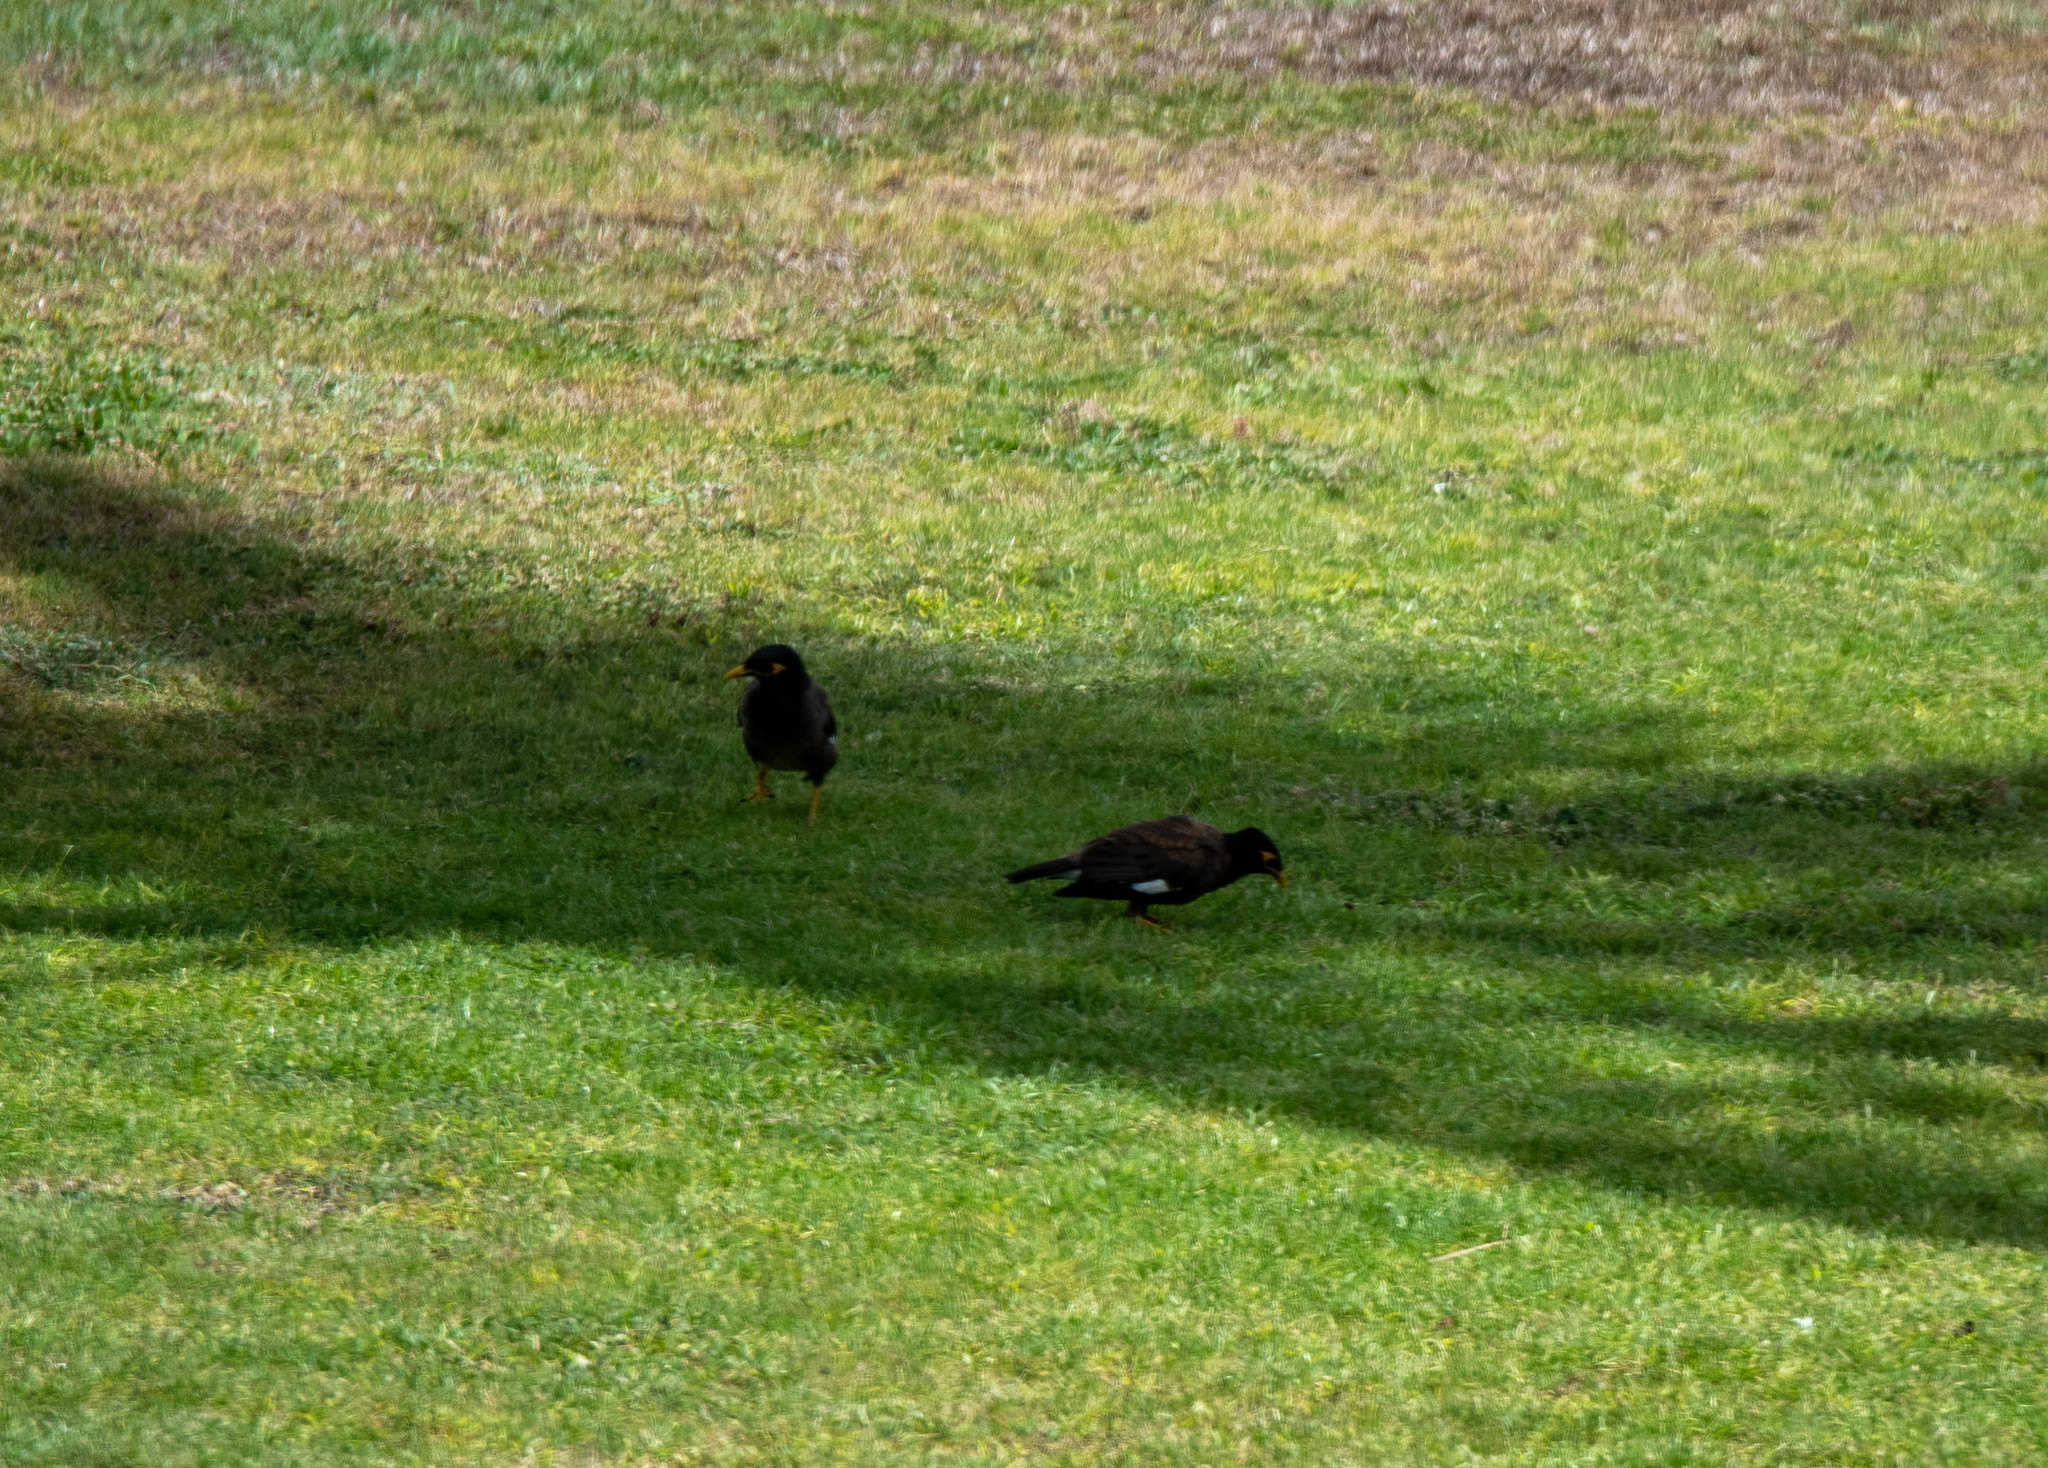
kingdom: Animalia
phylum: Chordata
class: Aves
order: Passeriformes
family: Sturnidae
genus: Acridotheres
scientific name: Acridotheres tristis
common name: Common myna
